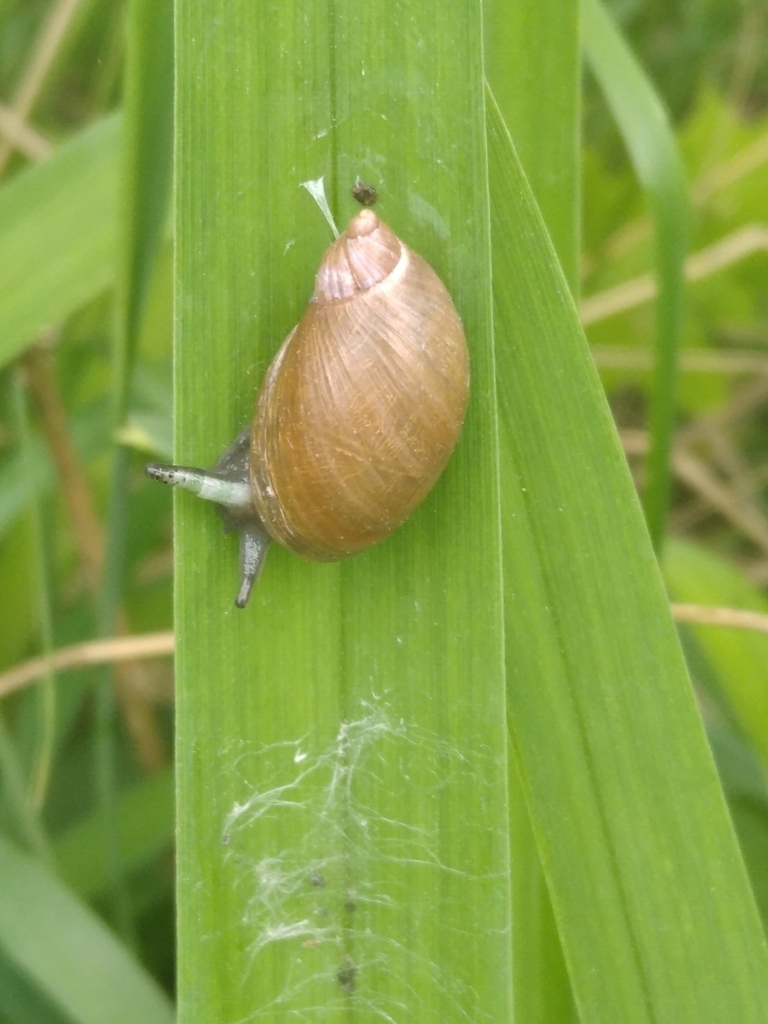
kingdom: Animalia
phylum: Platyhelminthes
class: Trematoda
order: Diplostomida
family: Leucochloridiidae
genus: Leucochloridium
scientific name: Leucochloridium paradoxum
